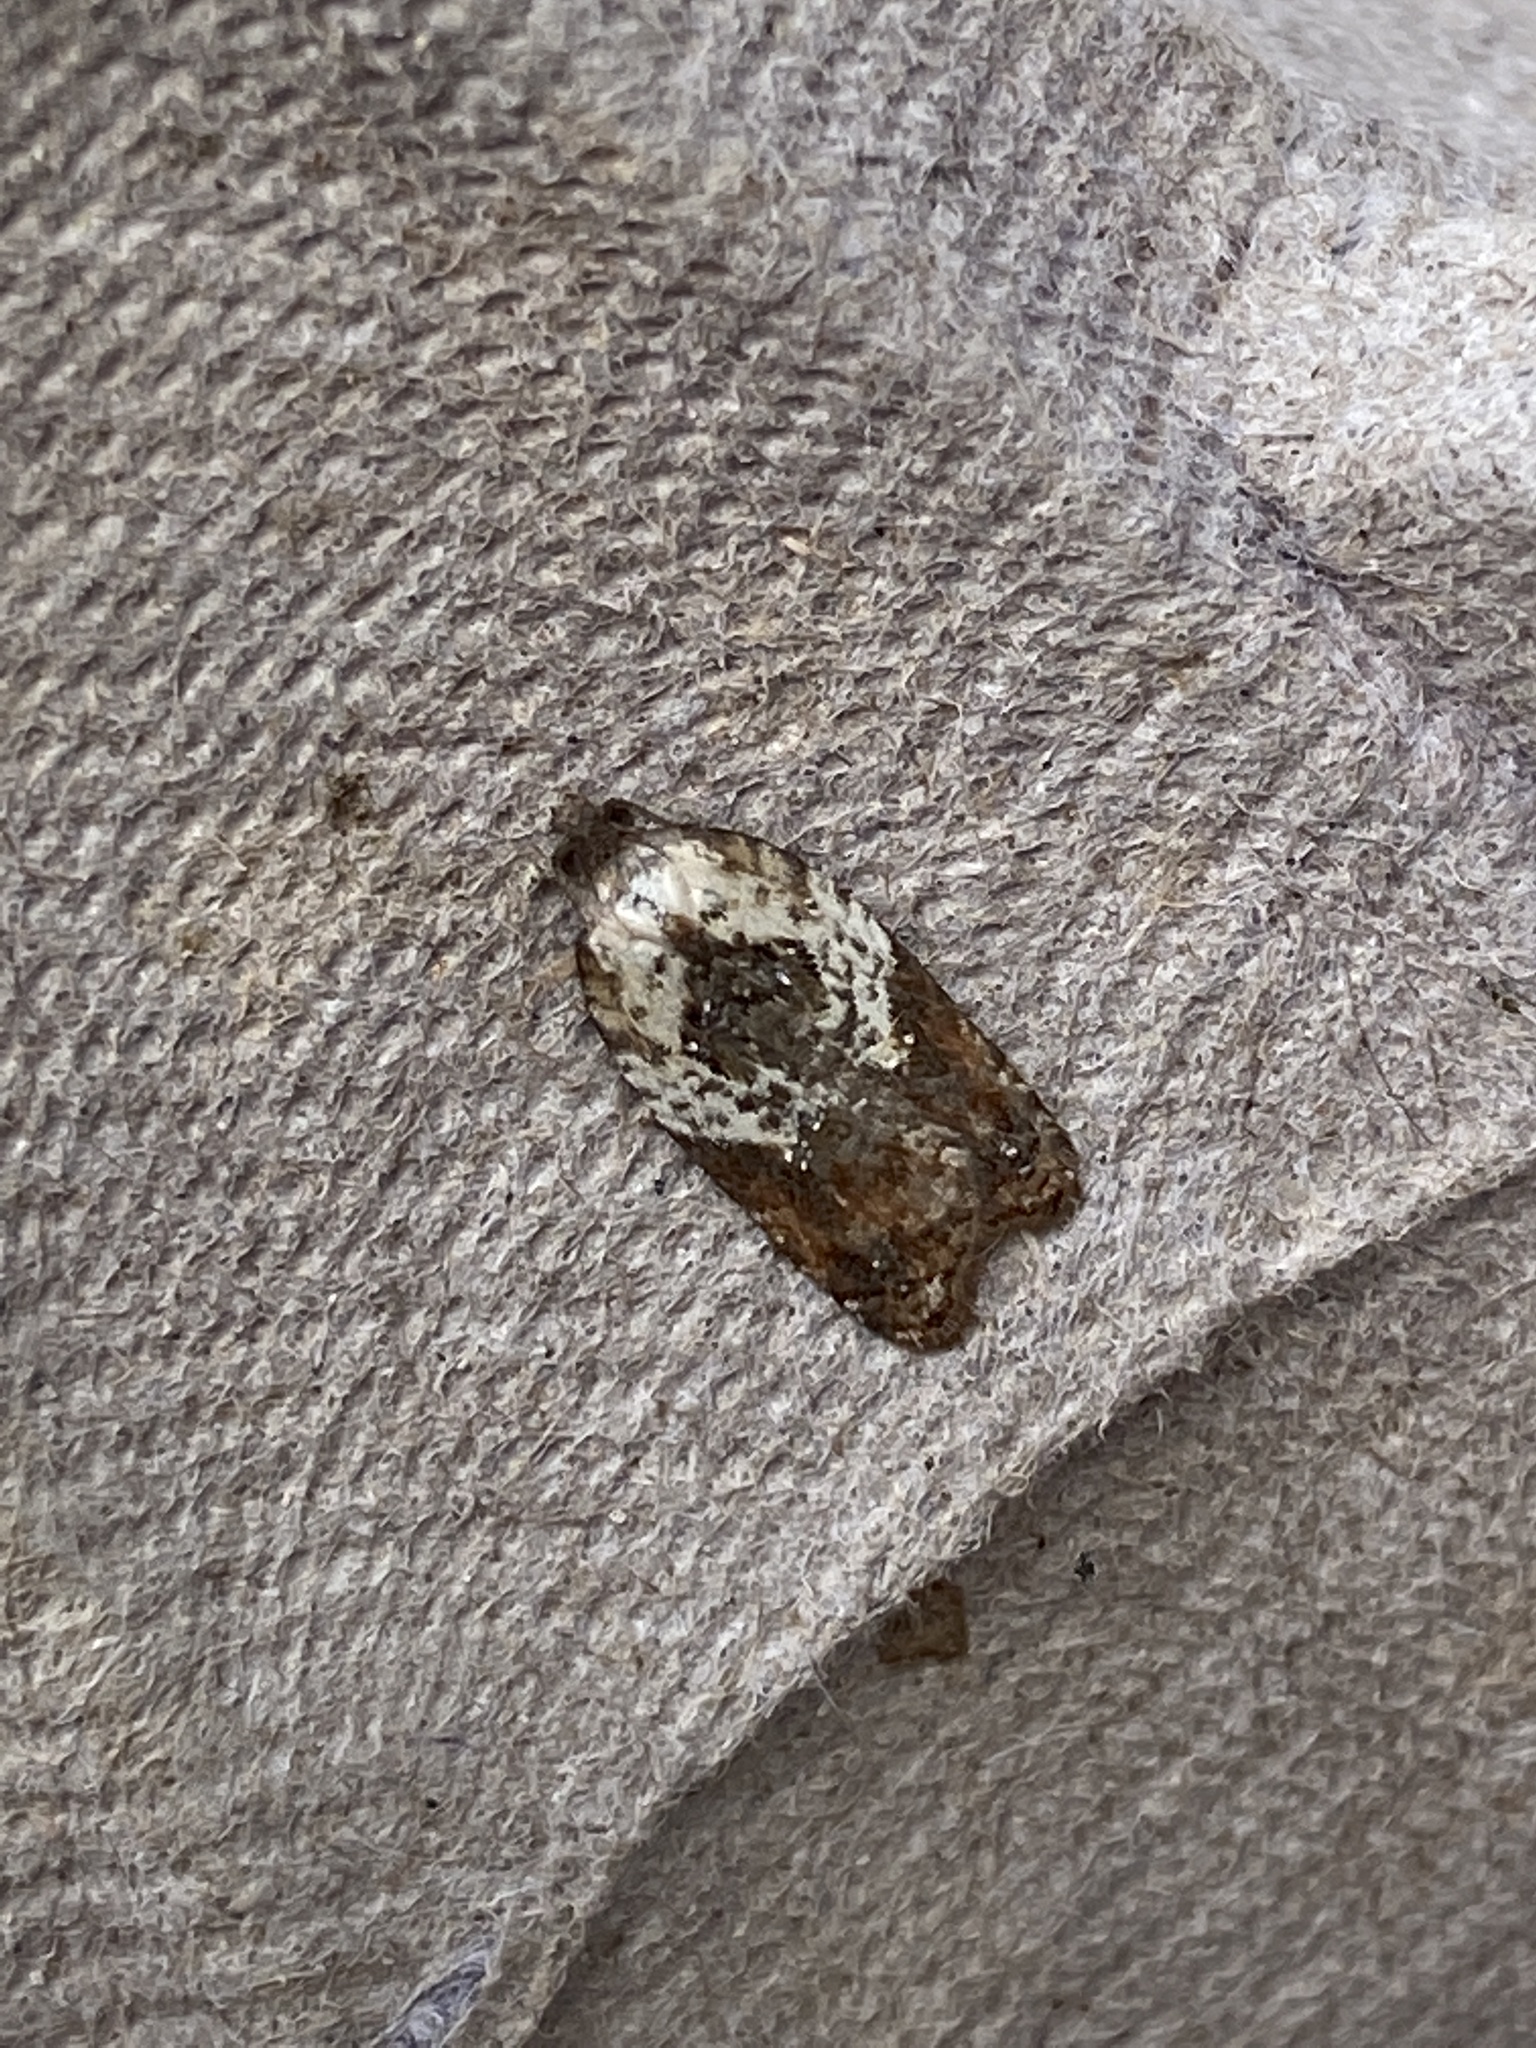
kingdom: Animalia
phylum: Arthropoda
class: Insecta
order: Lepidoptera
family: Tortricidae
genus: Acleris
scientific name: Acleris variegana
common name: Garden rose tortrix
